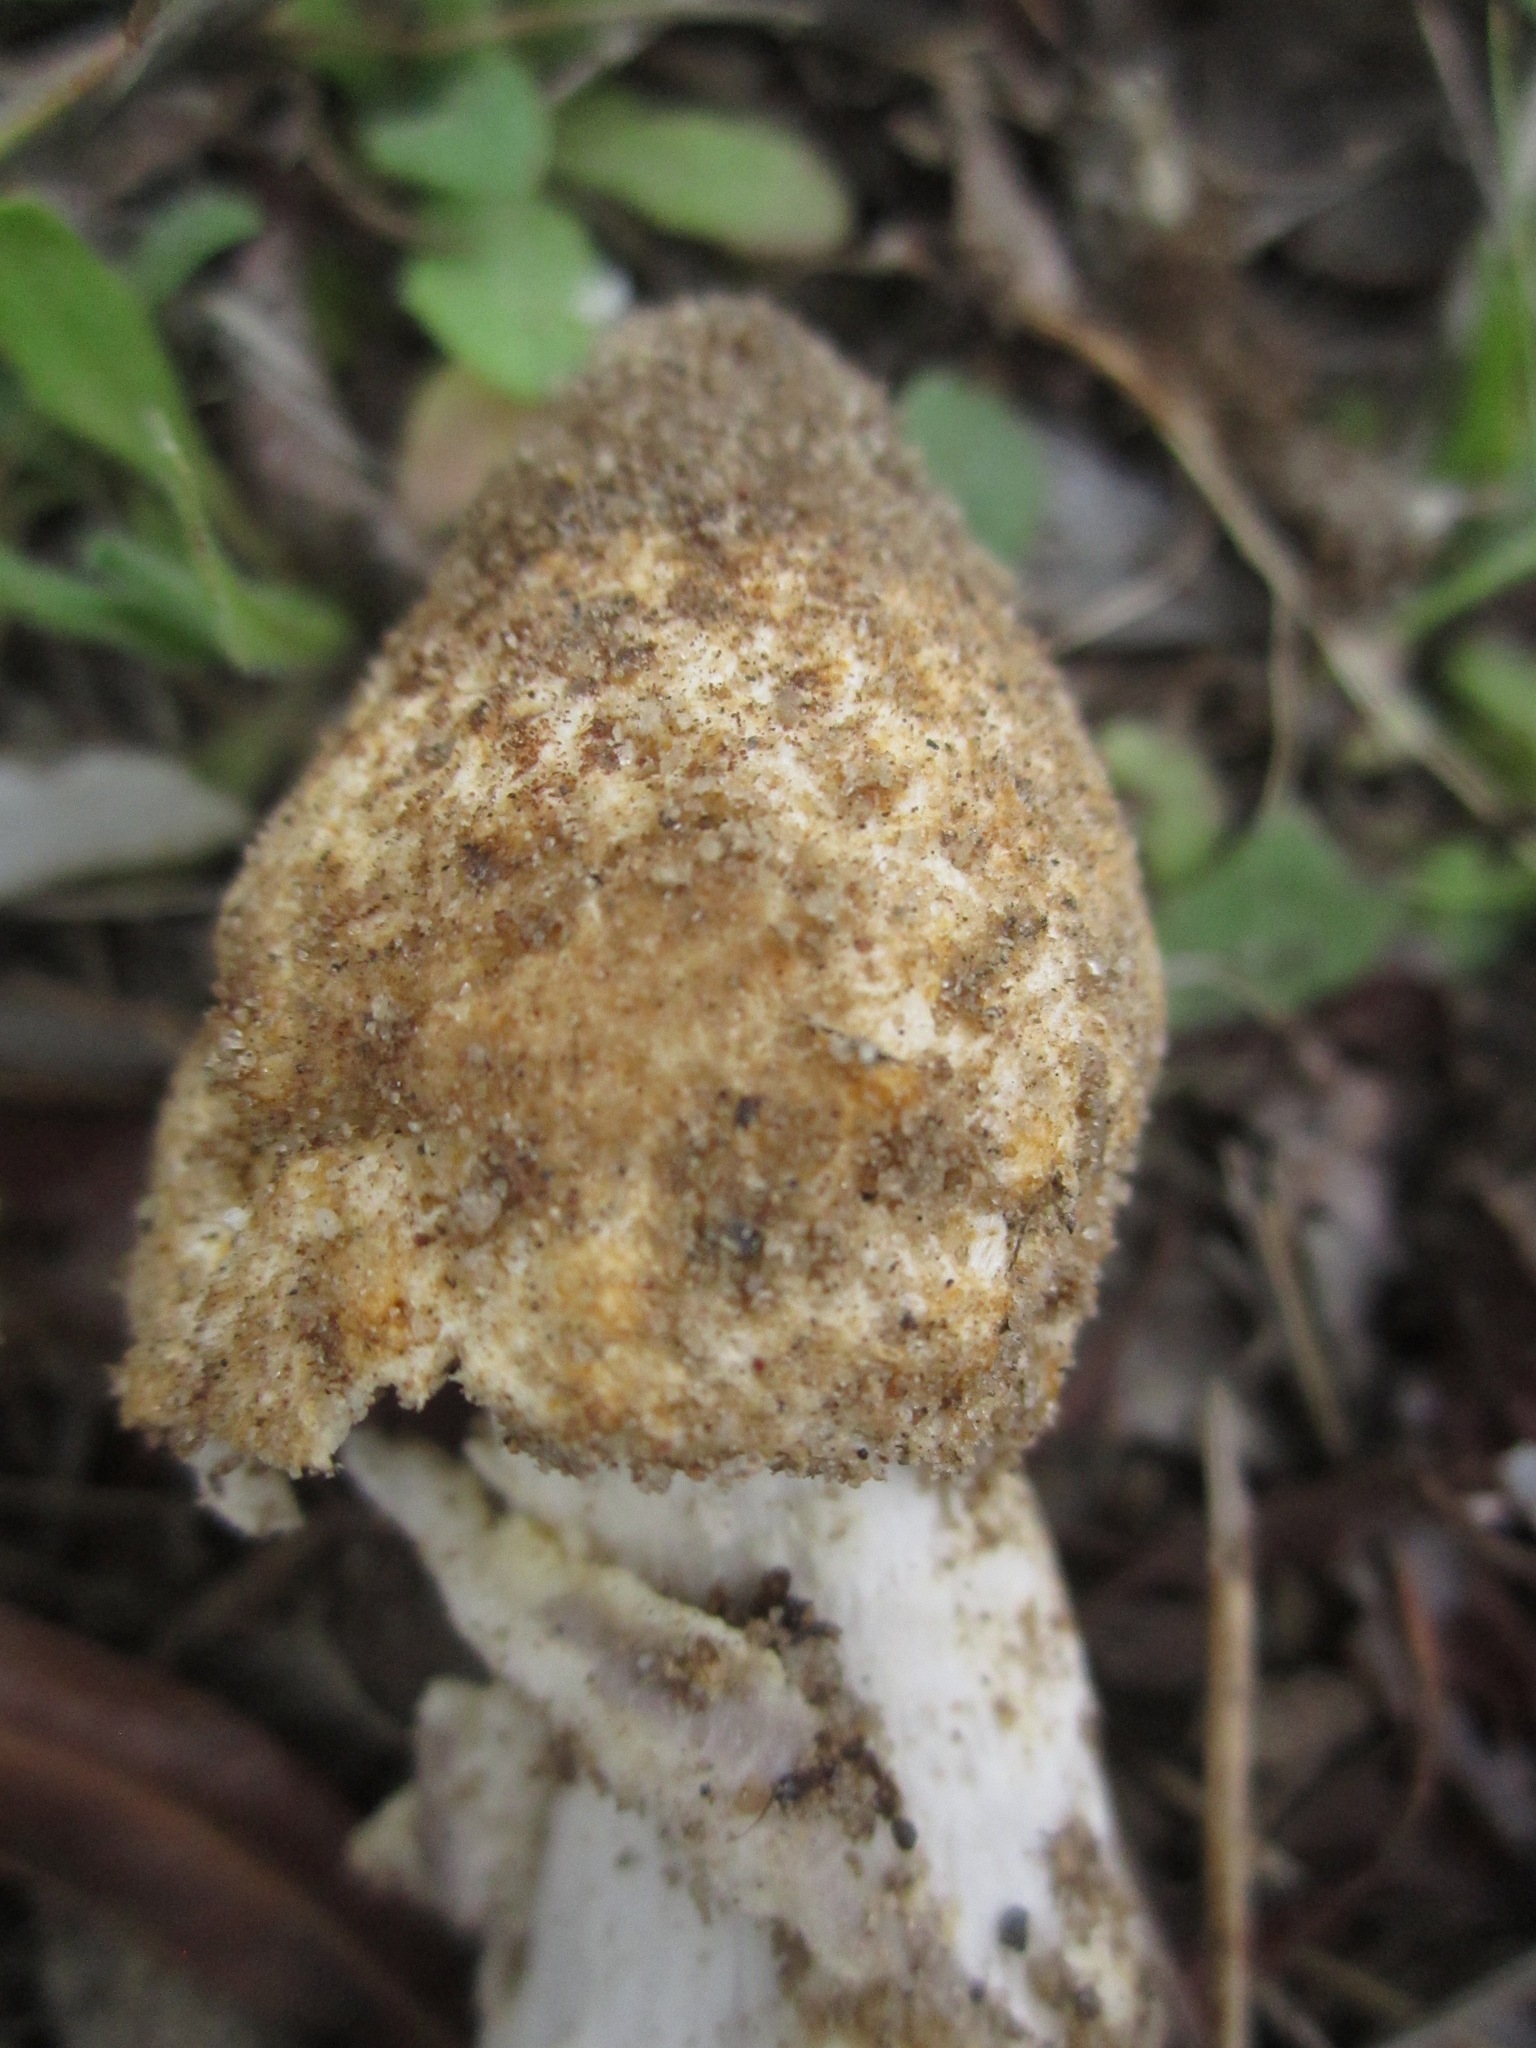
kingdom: Fungi
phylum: Basidiomycota
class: Agaricomycetes
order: Agaricales
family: Amanitaceae
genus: Amanita
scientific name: Amanita protecta
